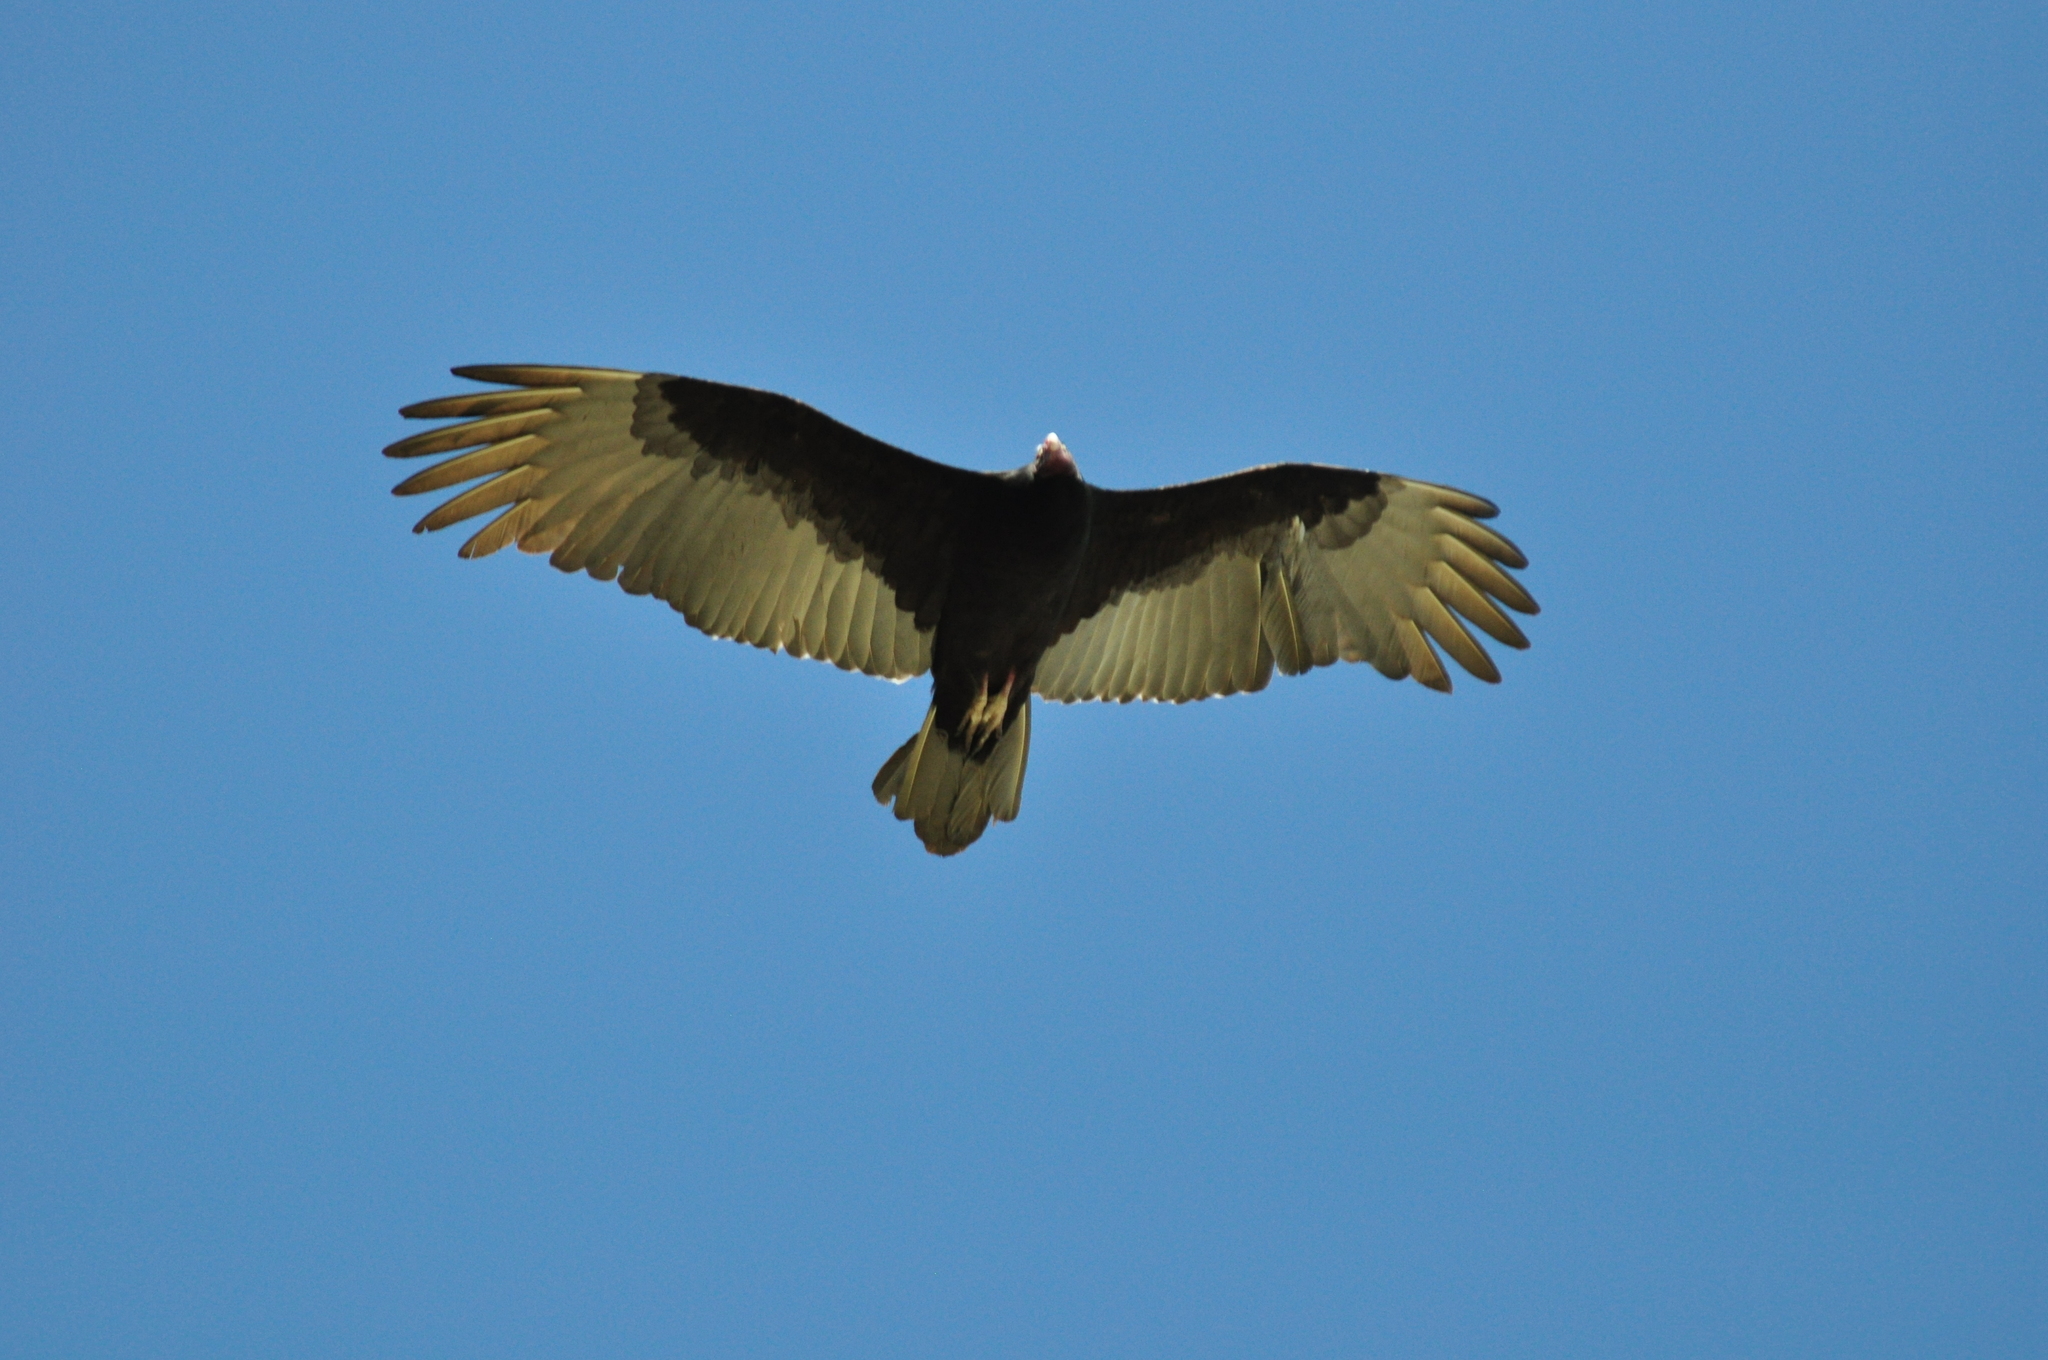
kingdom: Animalia
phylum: Chordata
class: Aves
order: Accipitriformes
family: Cathartidae
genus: Cathartes
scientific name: Cathartes aura
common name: Turkey vulture
